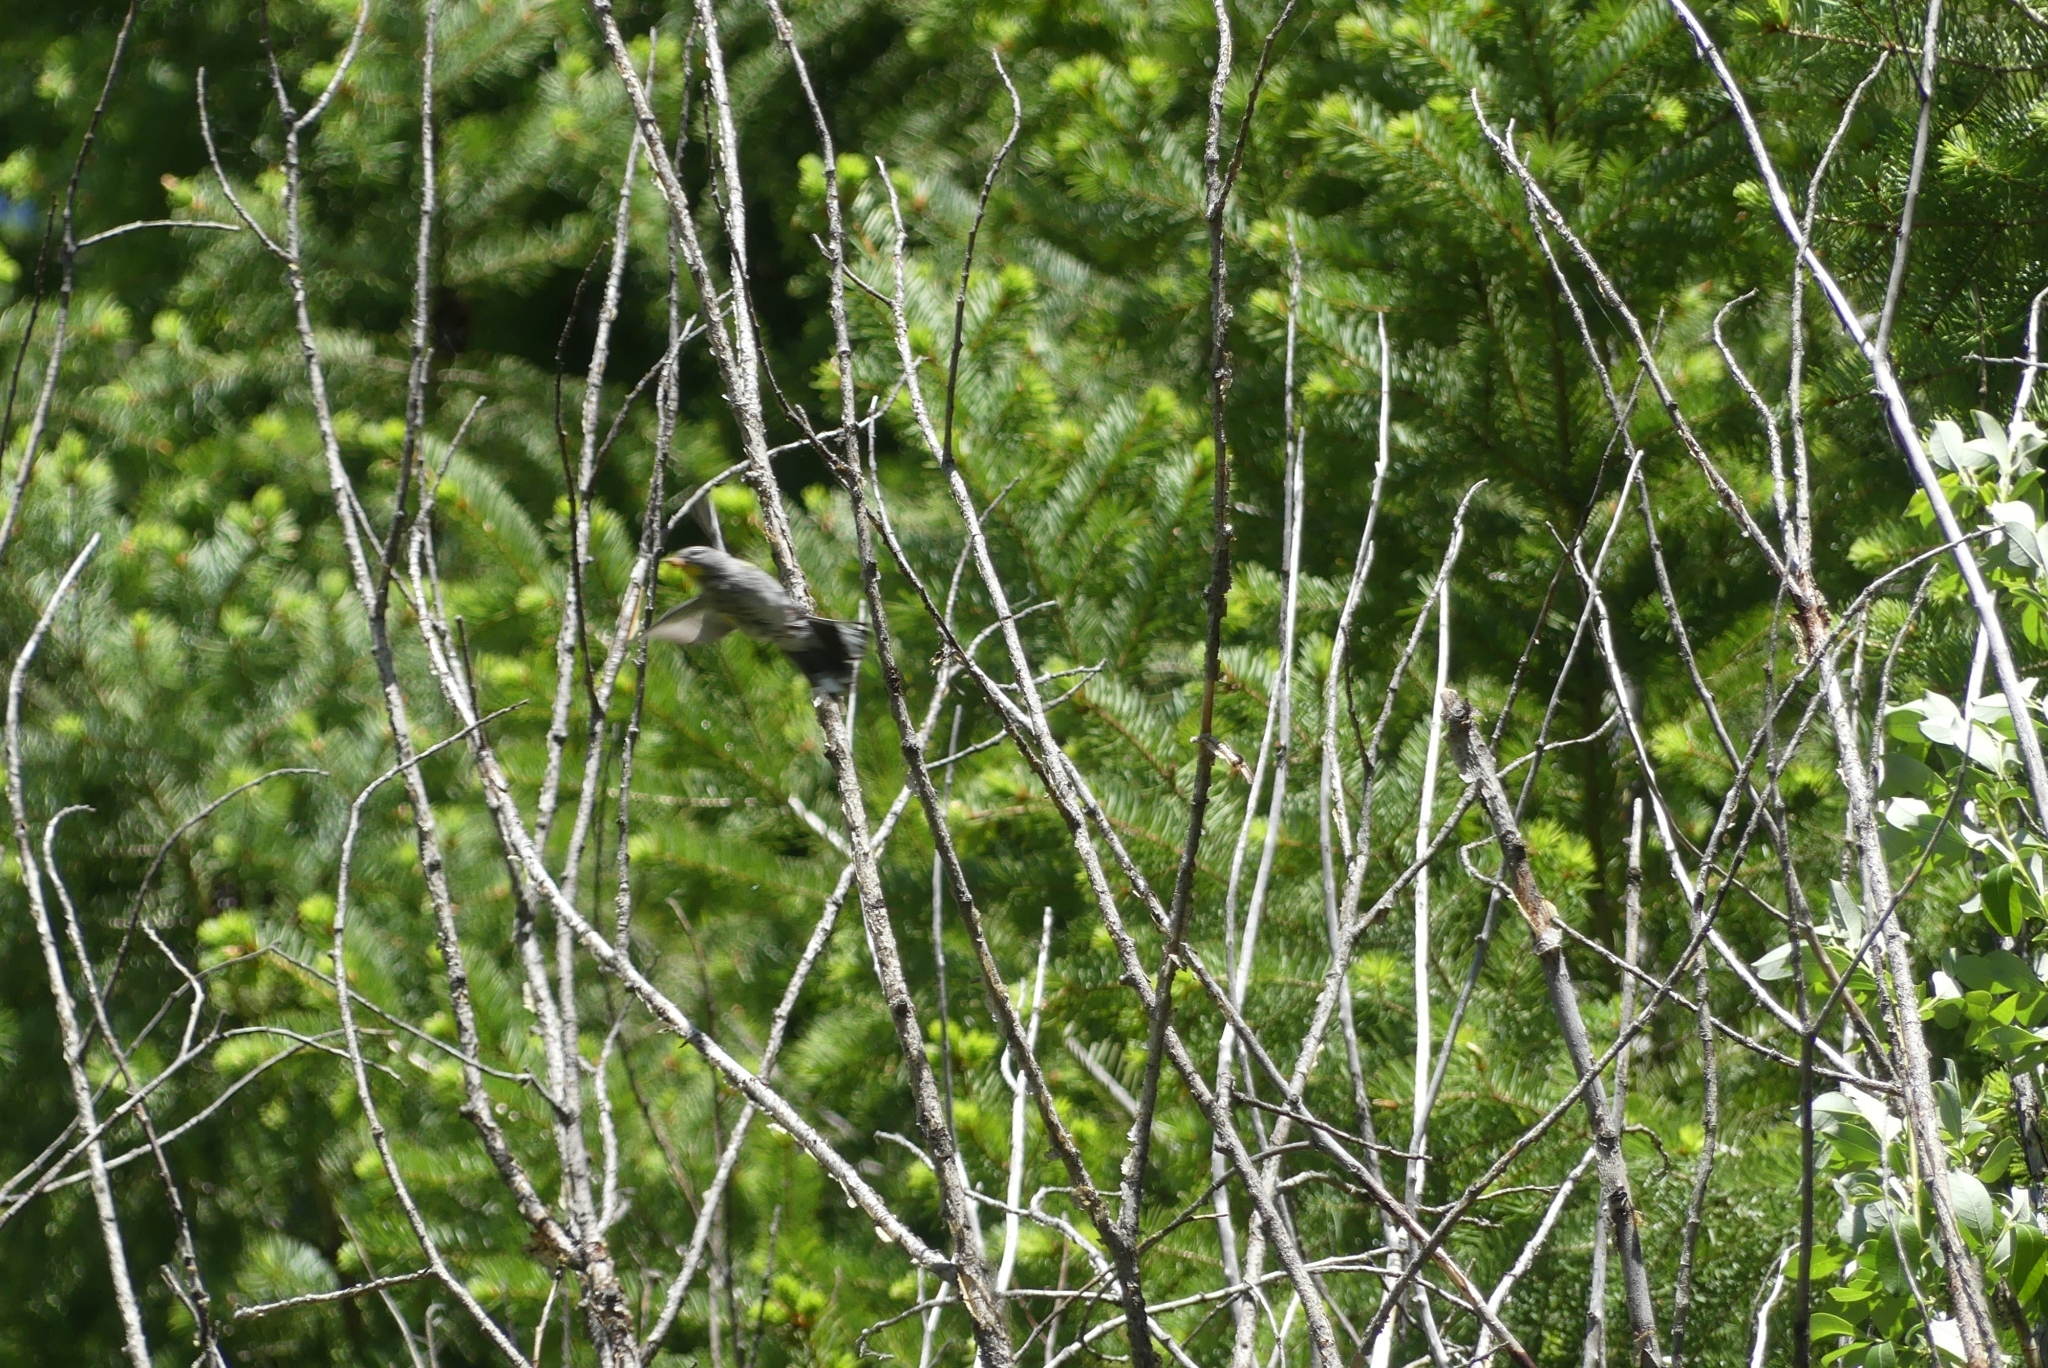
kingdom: Animalia
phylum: Chordata
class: Aves
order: Passeriformes
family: Parulidae
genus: Setophaga
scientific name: Setophaga coronata
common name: Myrtle warbler
